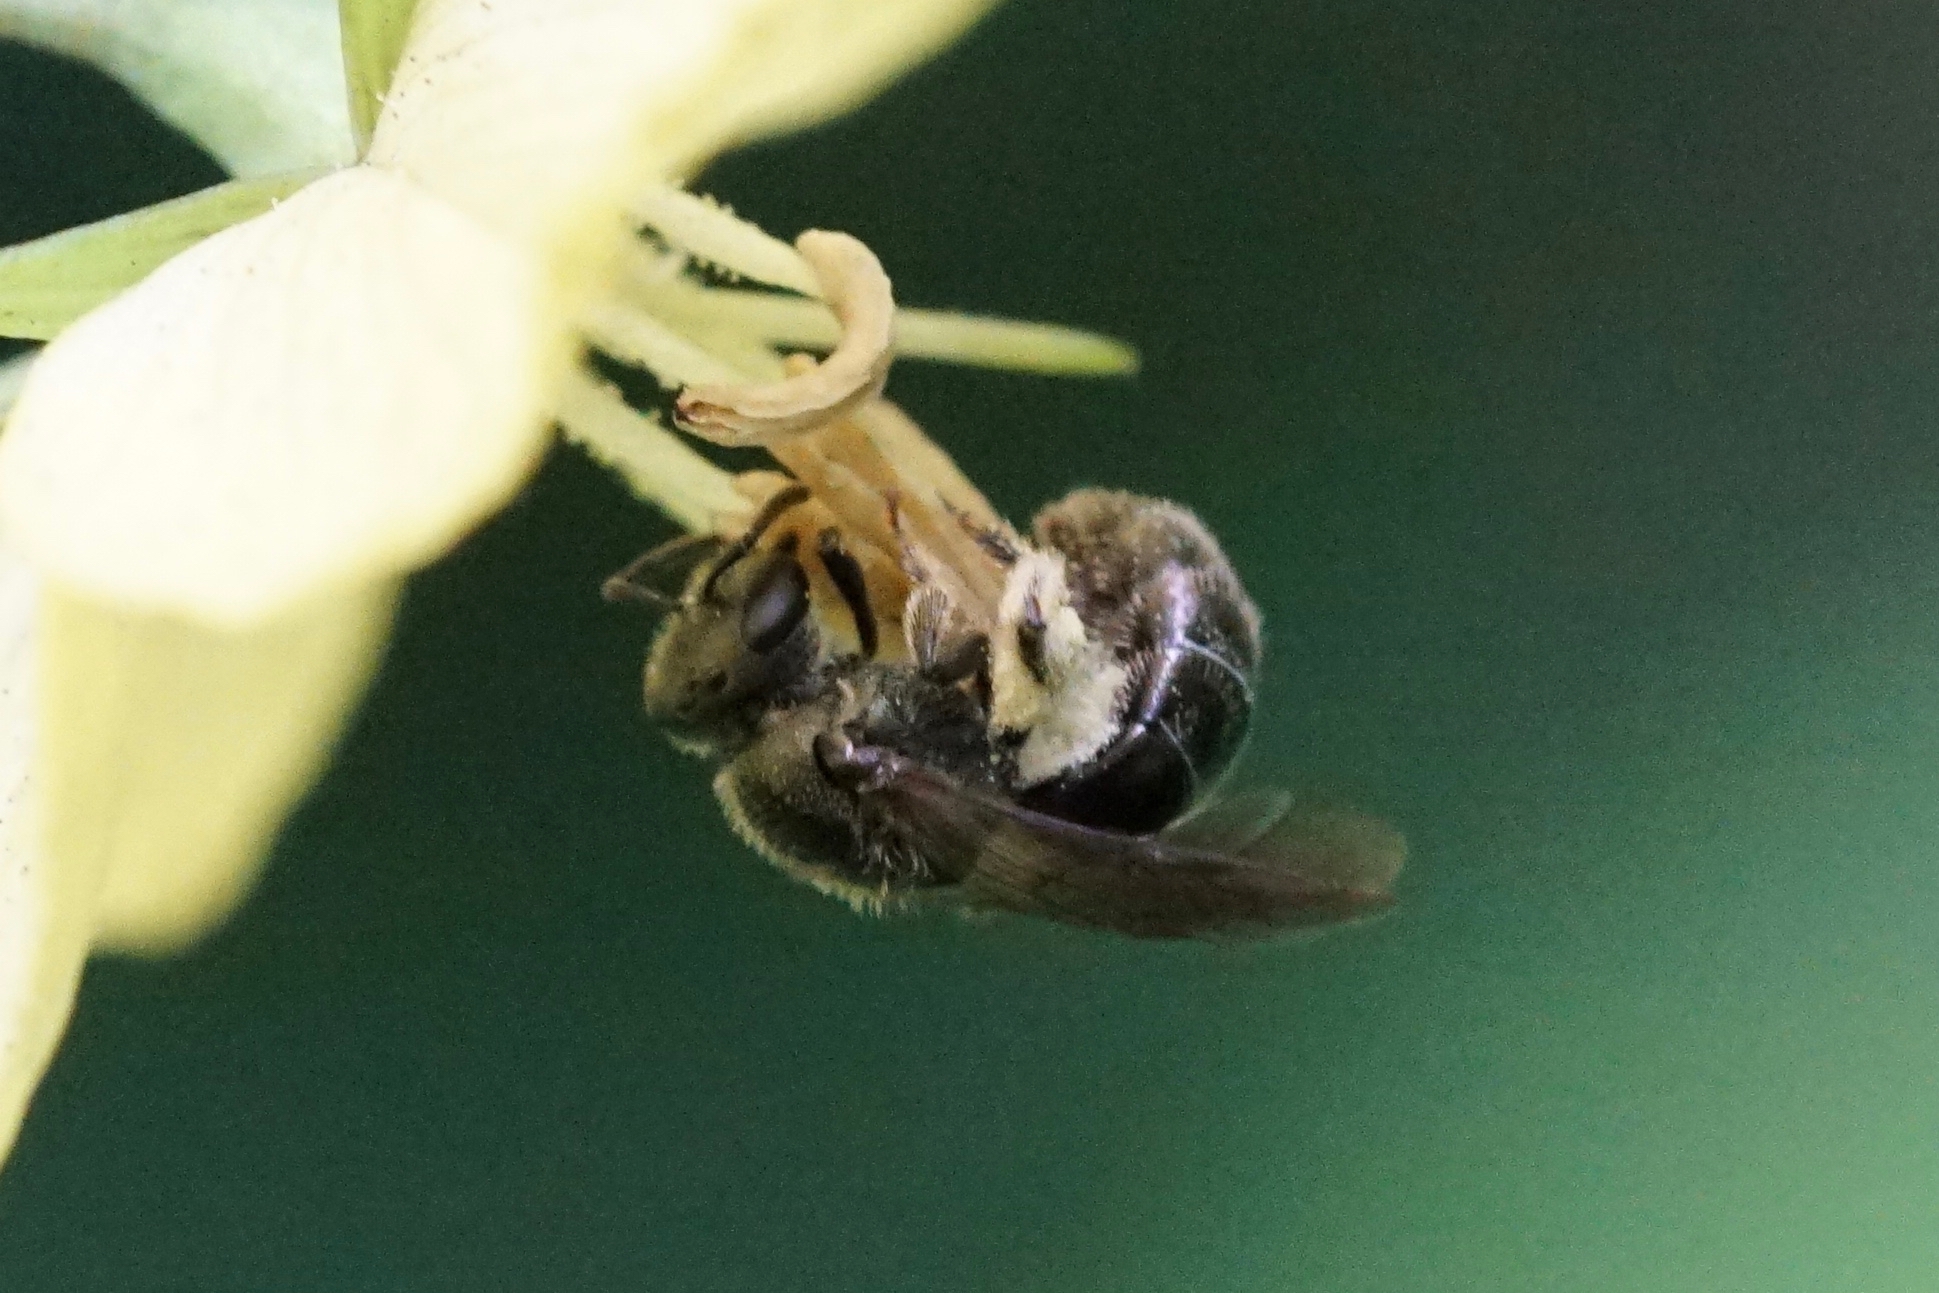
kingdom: Animalia
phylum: Arthropoda
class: Insecta
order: Hymenoptera
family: Halictidae
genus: Dialictus
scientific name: Dialictus
